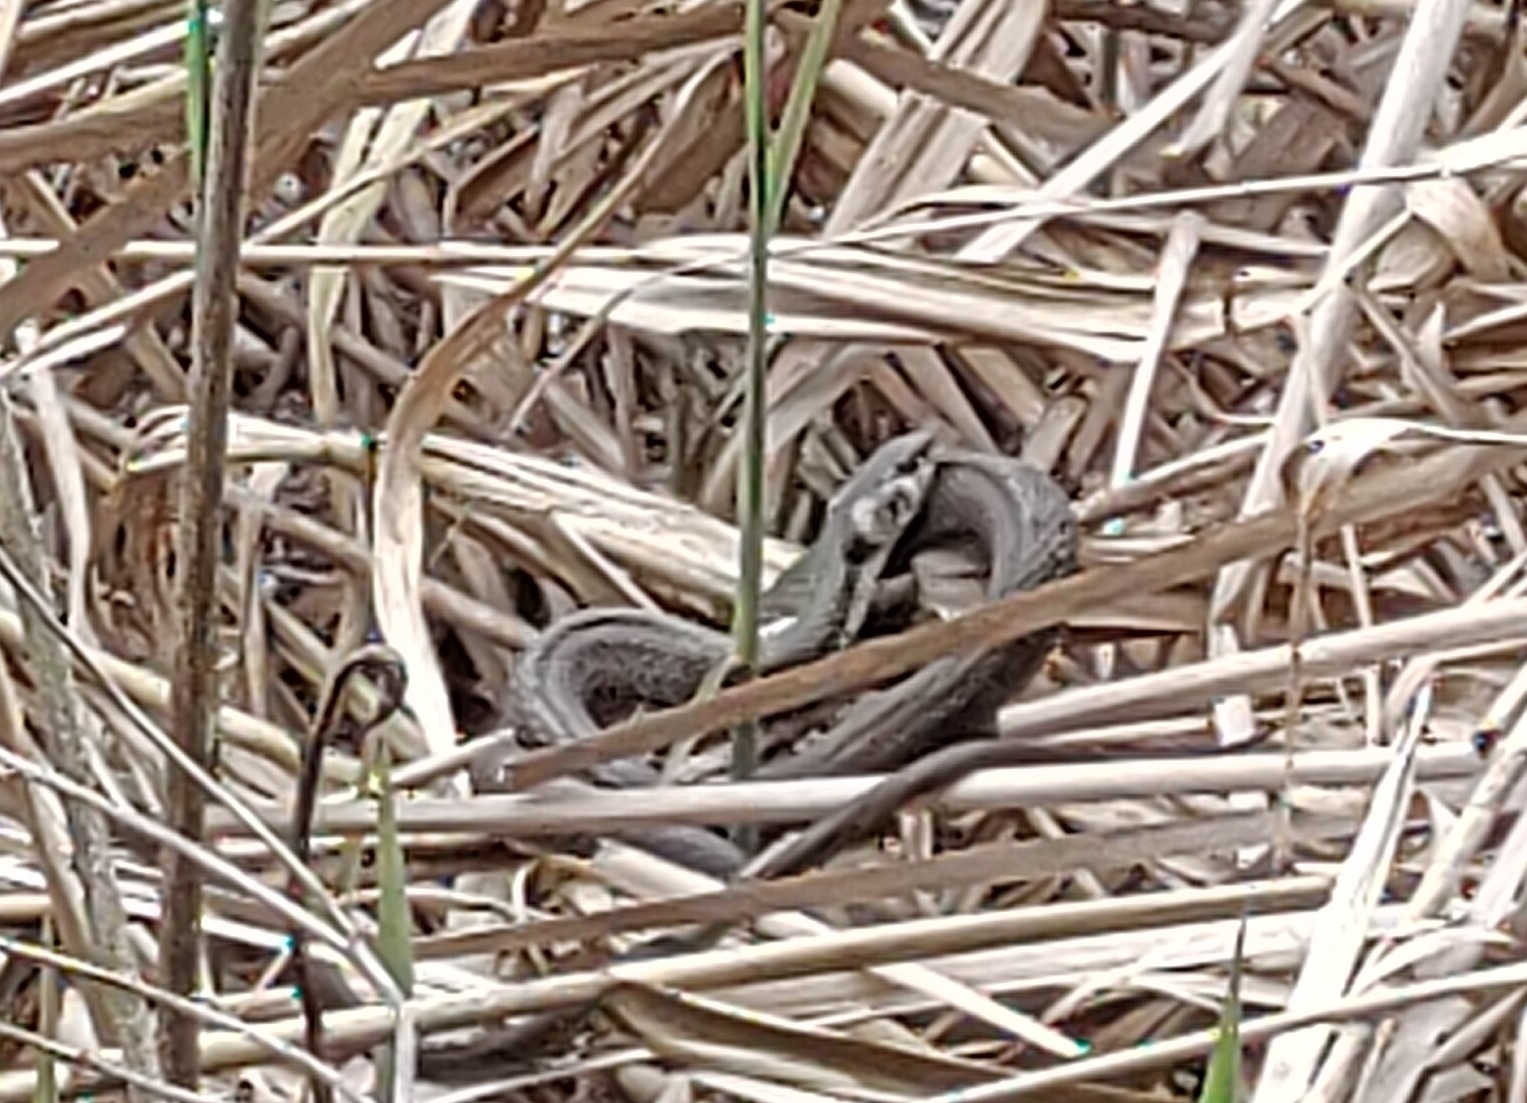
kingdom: Animalia
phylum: Chordata
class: Squamata
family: Colubridae
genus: Natrix
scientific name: Natrix natrix
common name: Grass snake
